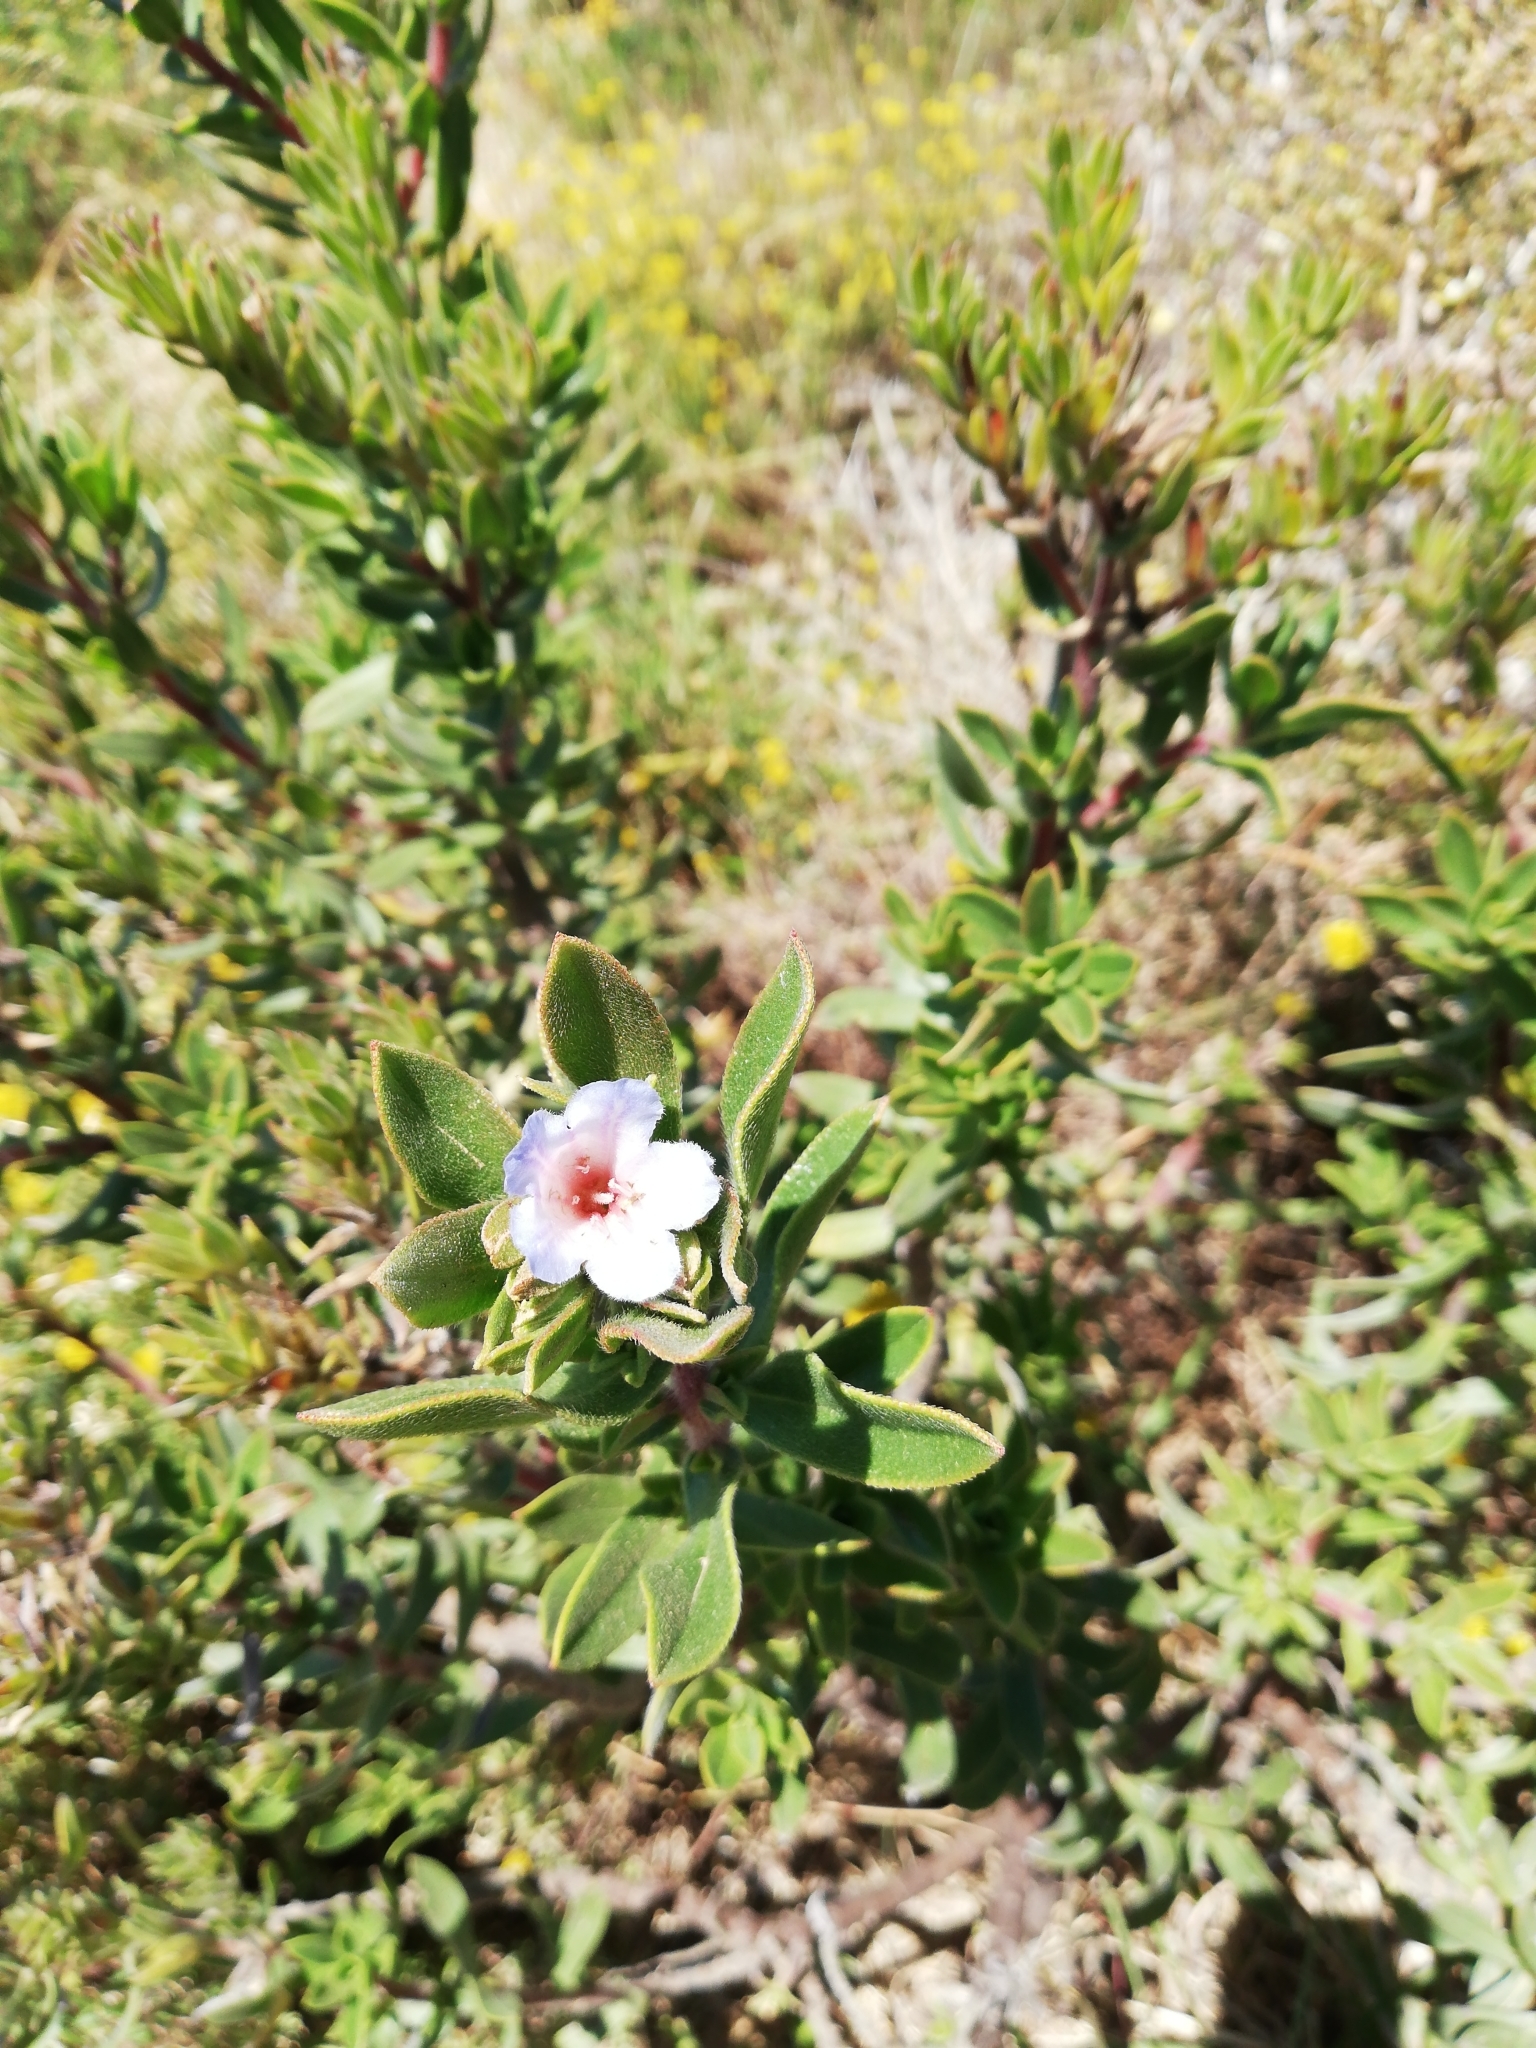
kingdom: Plantae
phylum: Tracheophyta
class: Magnoliopsida
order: Boraginales
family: Boraginaceae
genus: Lobostemon
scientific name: Lobostemon fruticosus
